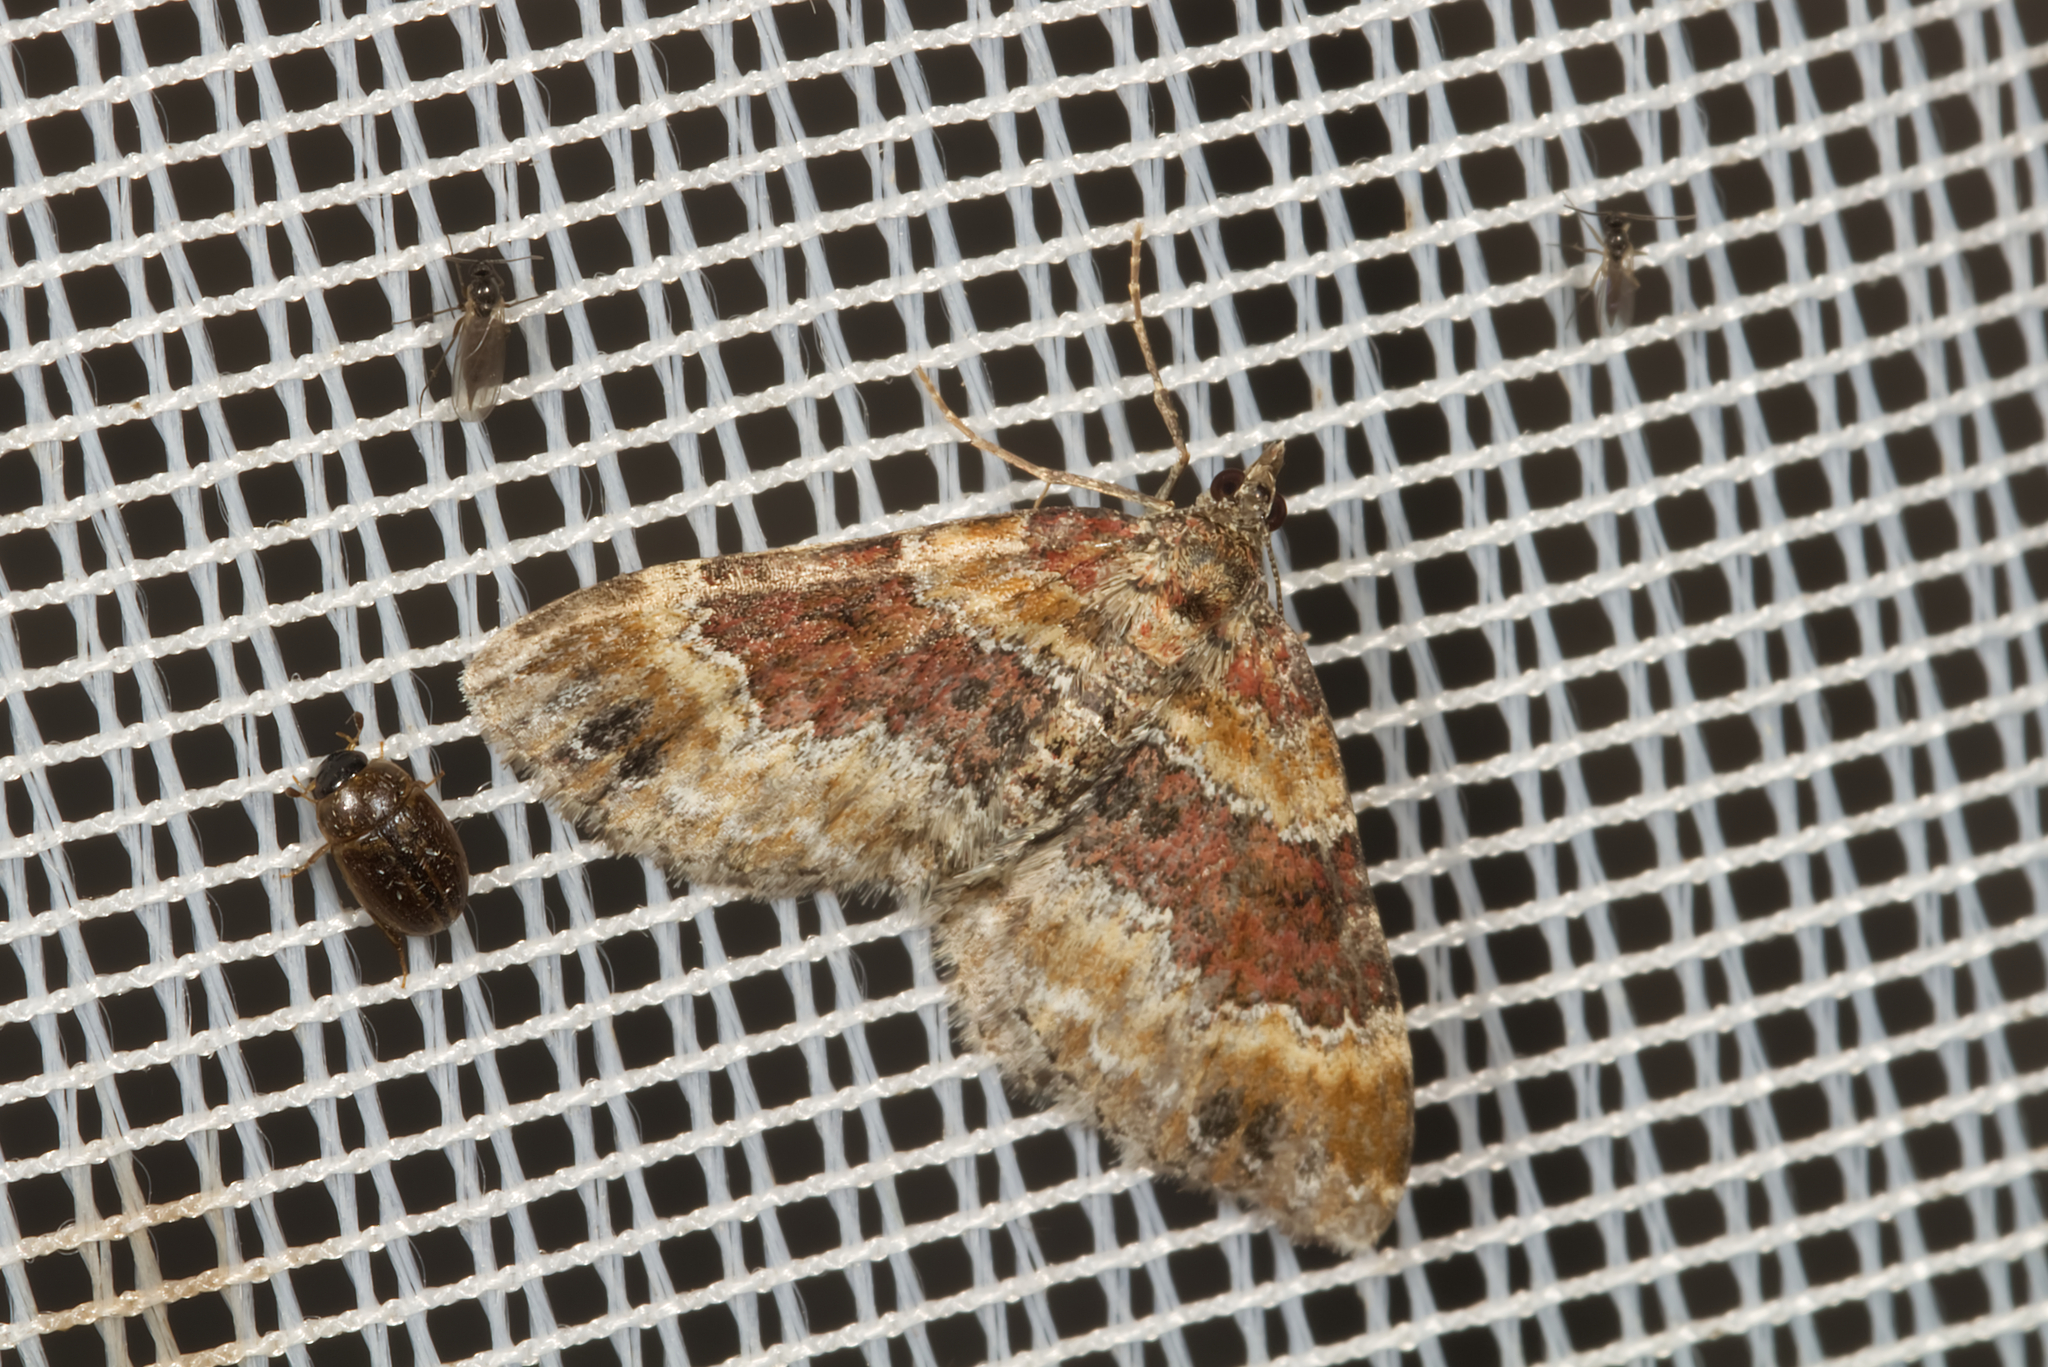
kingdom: Animalia
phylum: Arthropoda
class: Insecta
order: Lepidoptera
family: Geometridae
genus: Xanthorhoe
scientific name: Xanthorhoe spadicearia
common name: Red twin-spot carpet
